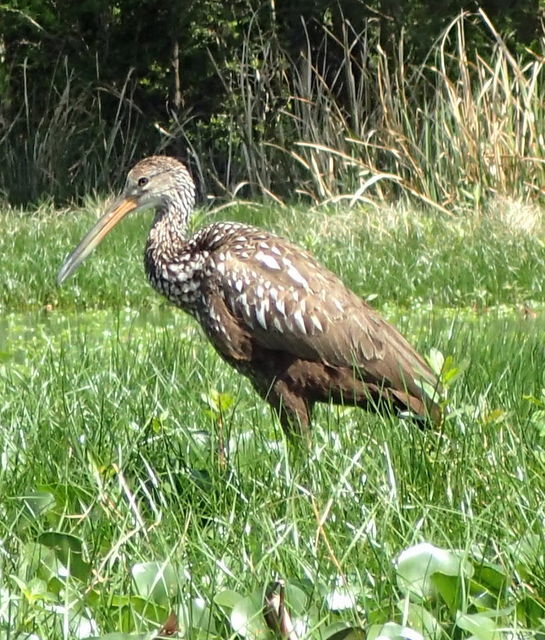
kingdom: Animalia
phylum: Chordata
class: Aves
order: Gruiformes
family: Aramidae
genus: Aramus
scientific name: Aramus guarauna
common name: Limpkin
